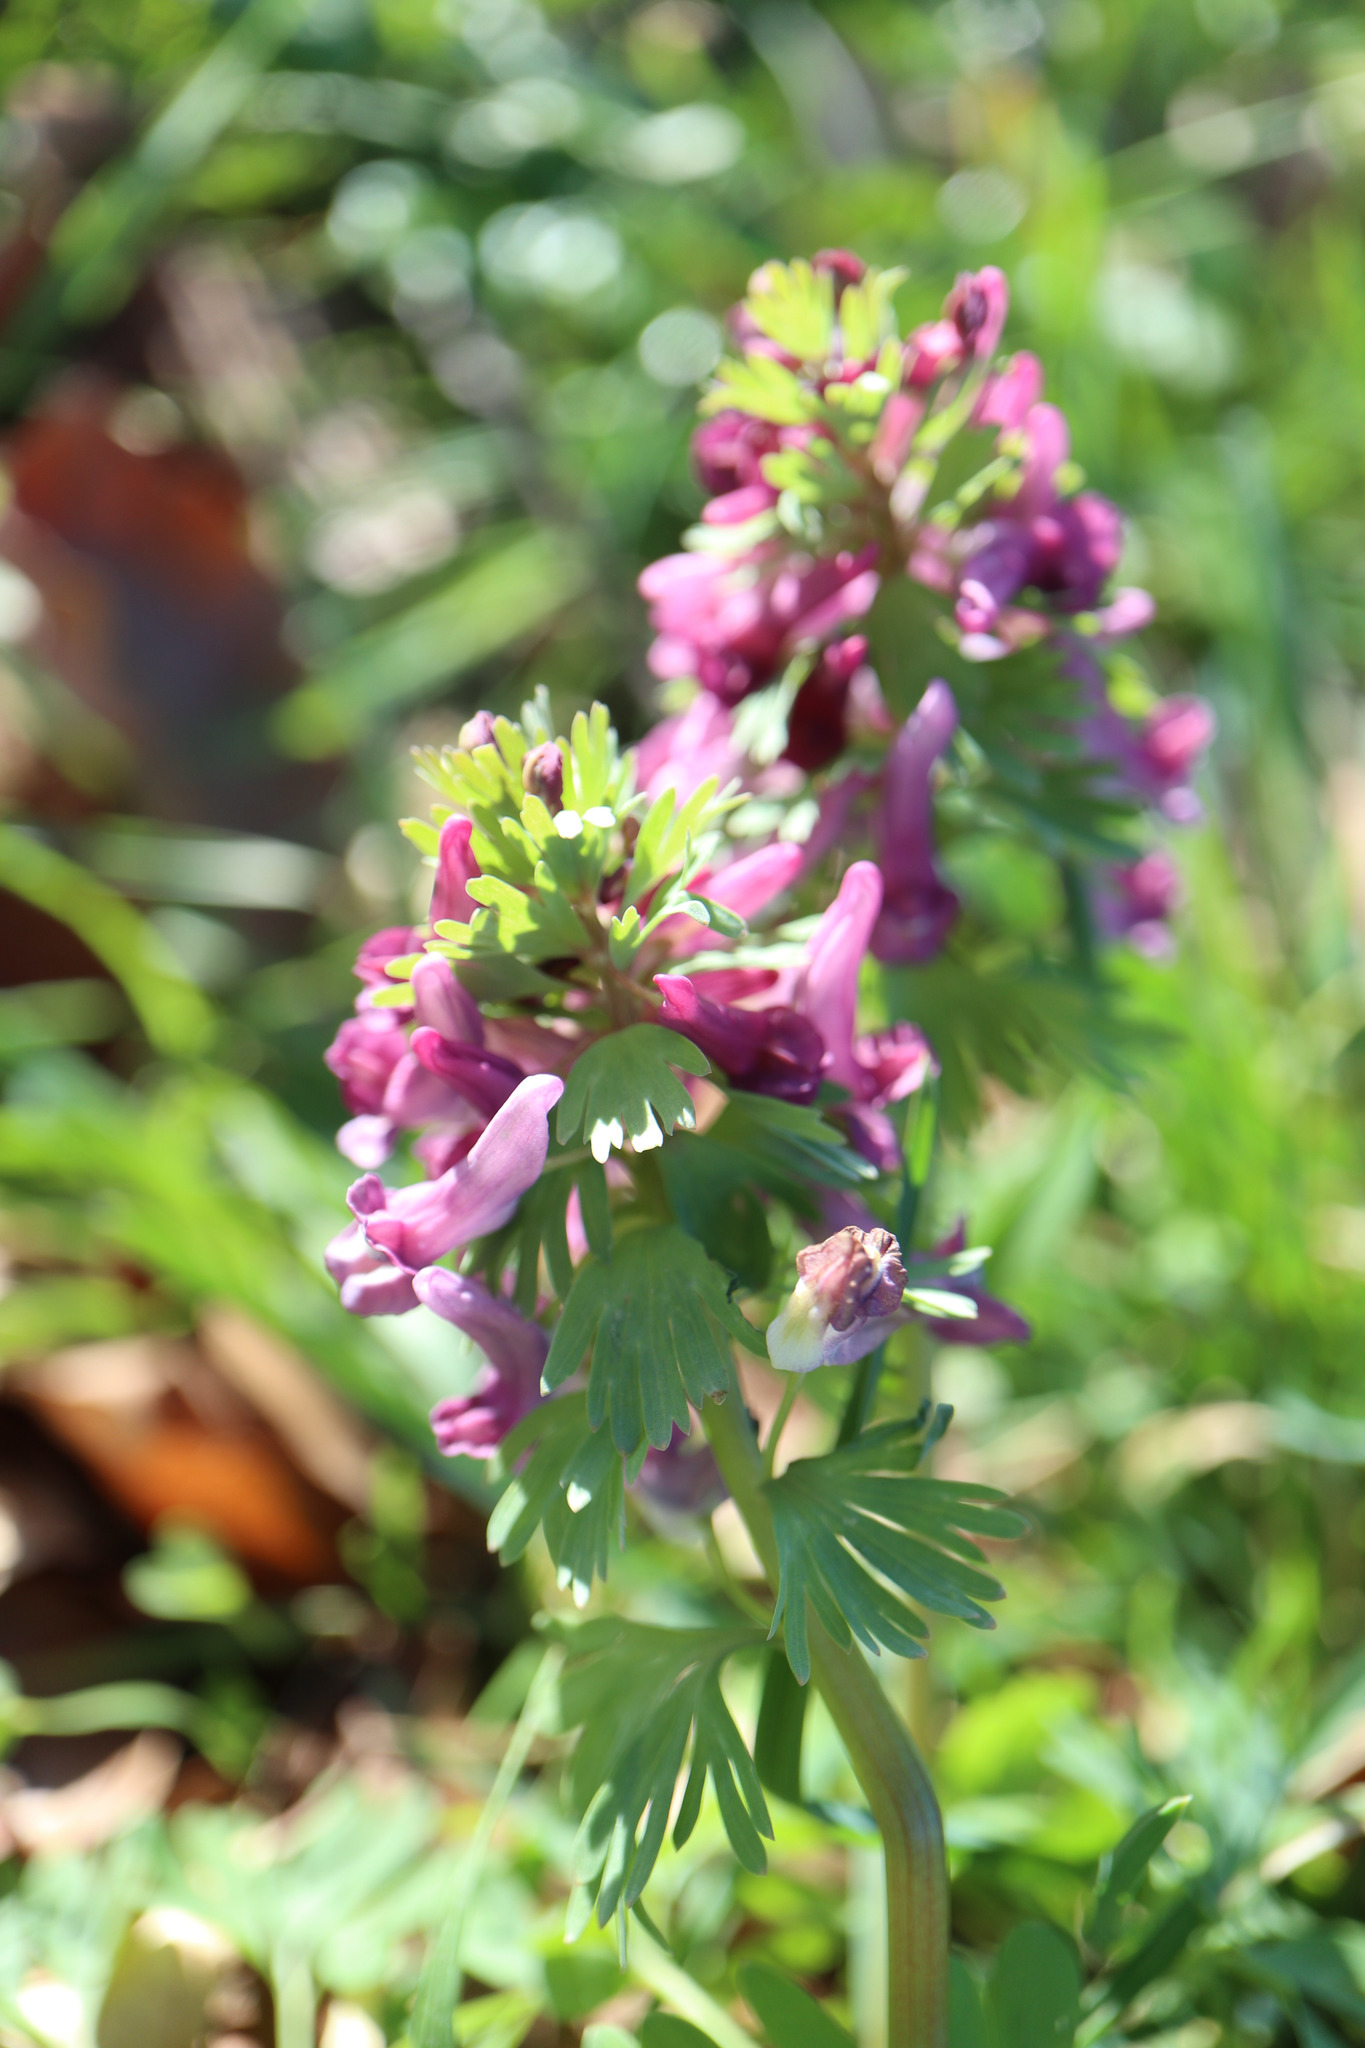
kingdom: Plantae
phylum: Tracheophyta
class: Magnoliopsida
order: Ranunculales
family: Papaveraceae
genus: Corydalis
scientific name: Corydalis solida
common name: Bird-in-a-bush
